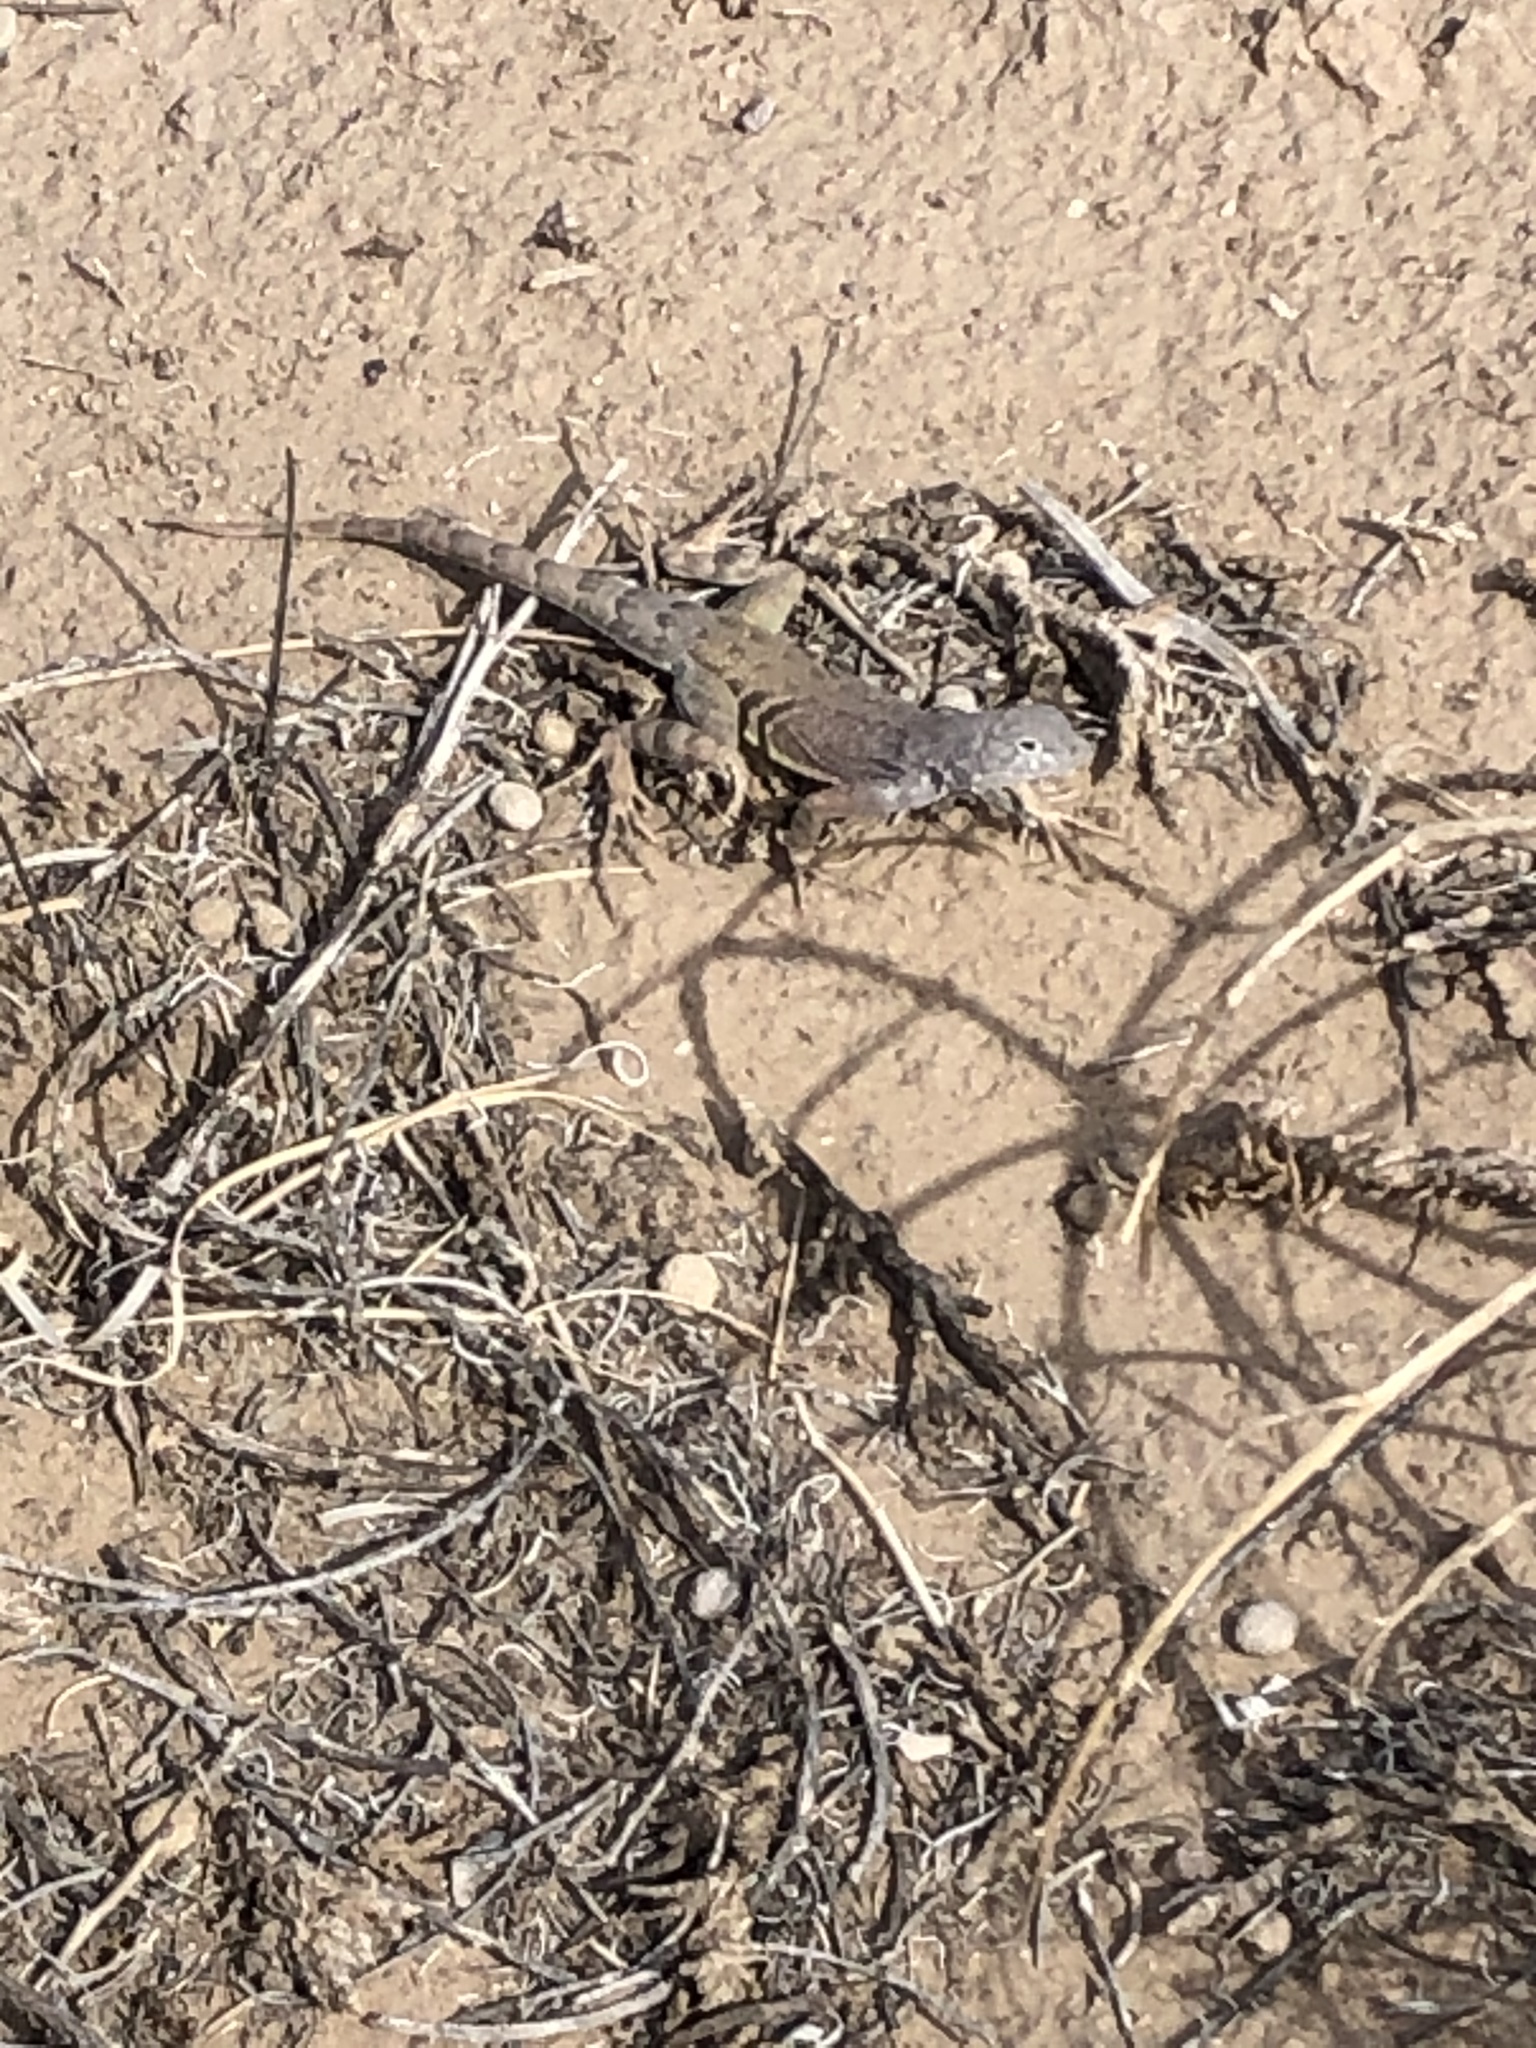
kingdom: Animalia
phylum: Chordata
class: Squamata
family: Phrynosomatidae
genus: Cophosaurus
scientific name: Cophosaurus texanus
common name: Greater earless lizard
